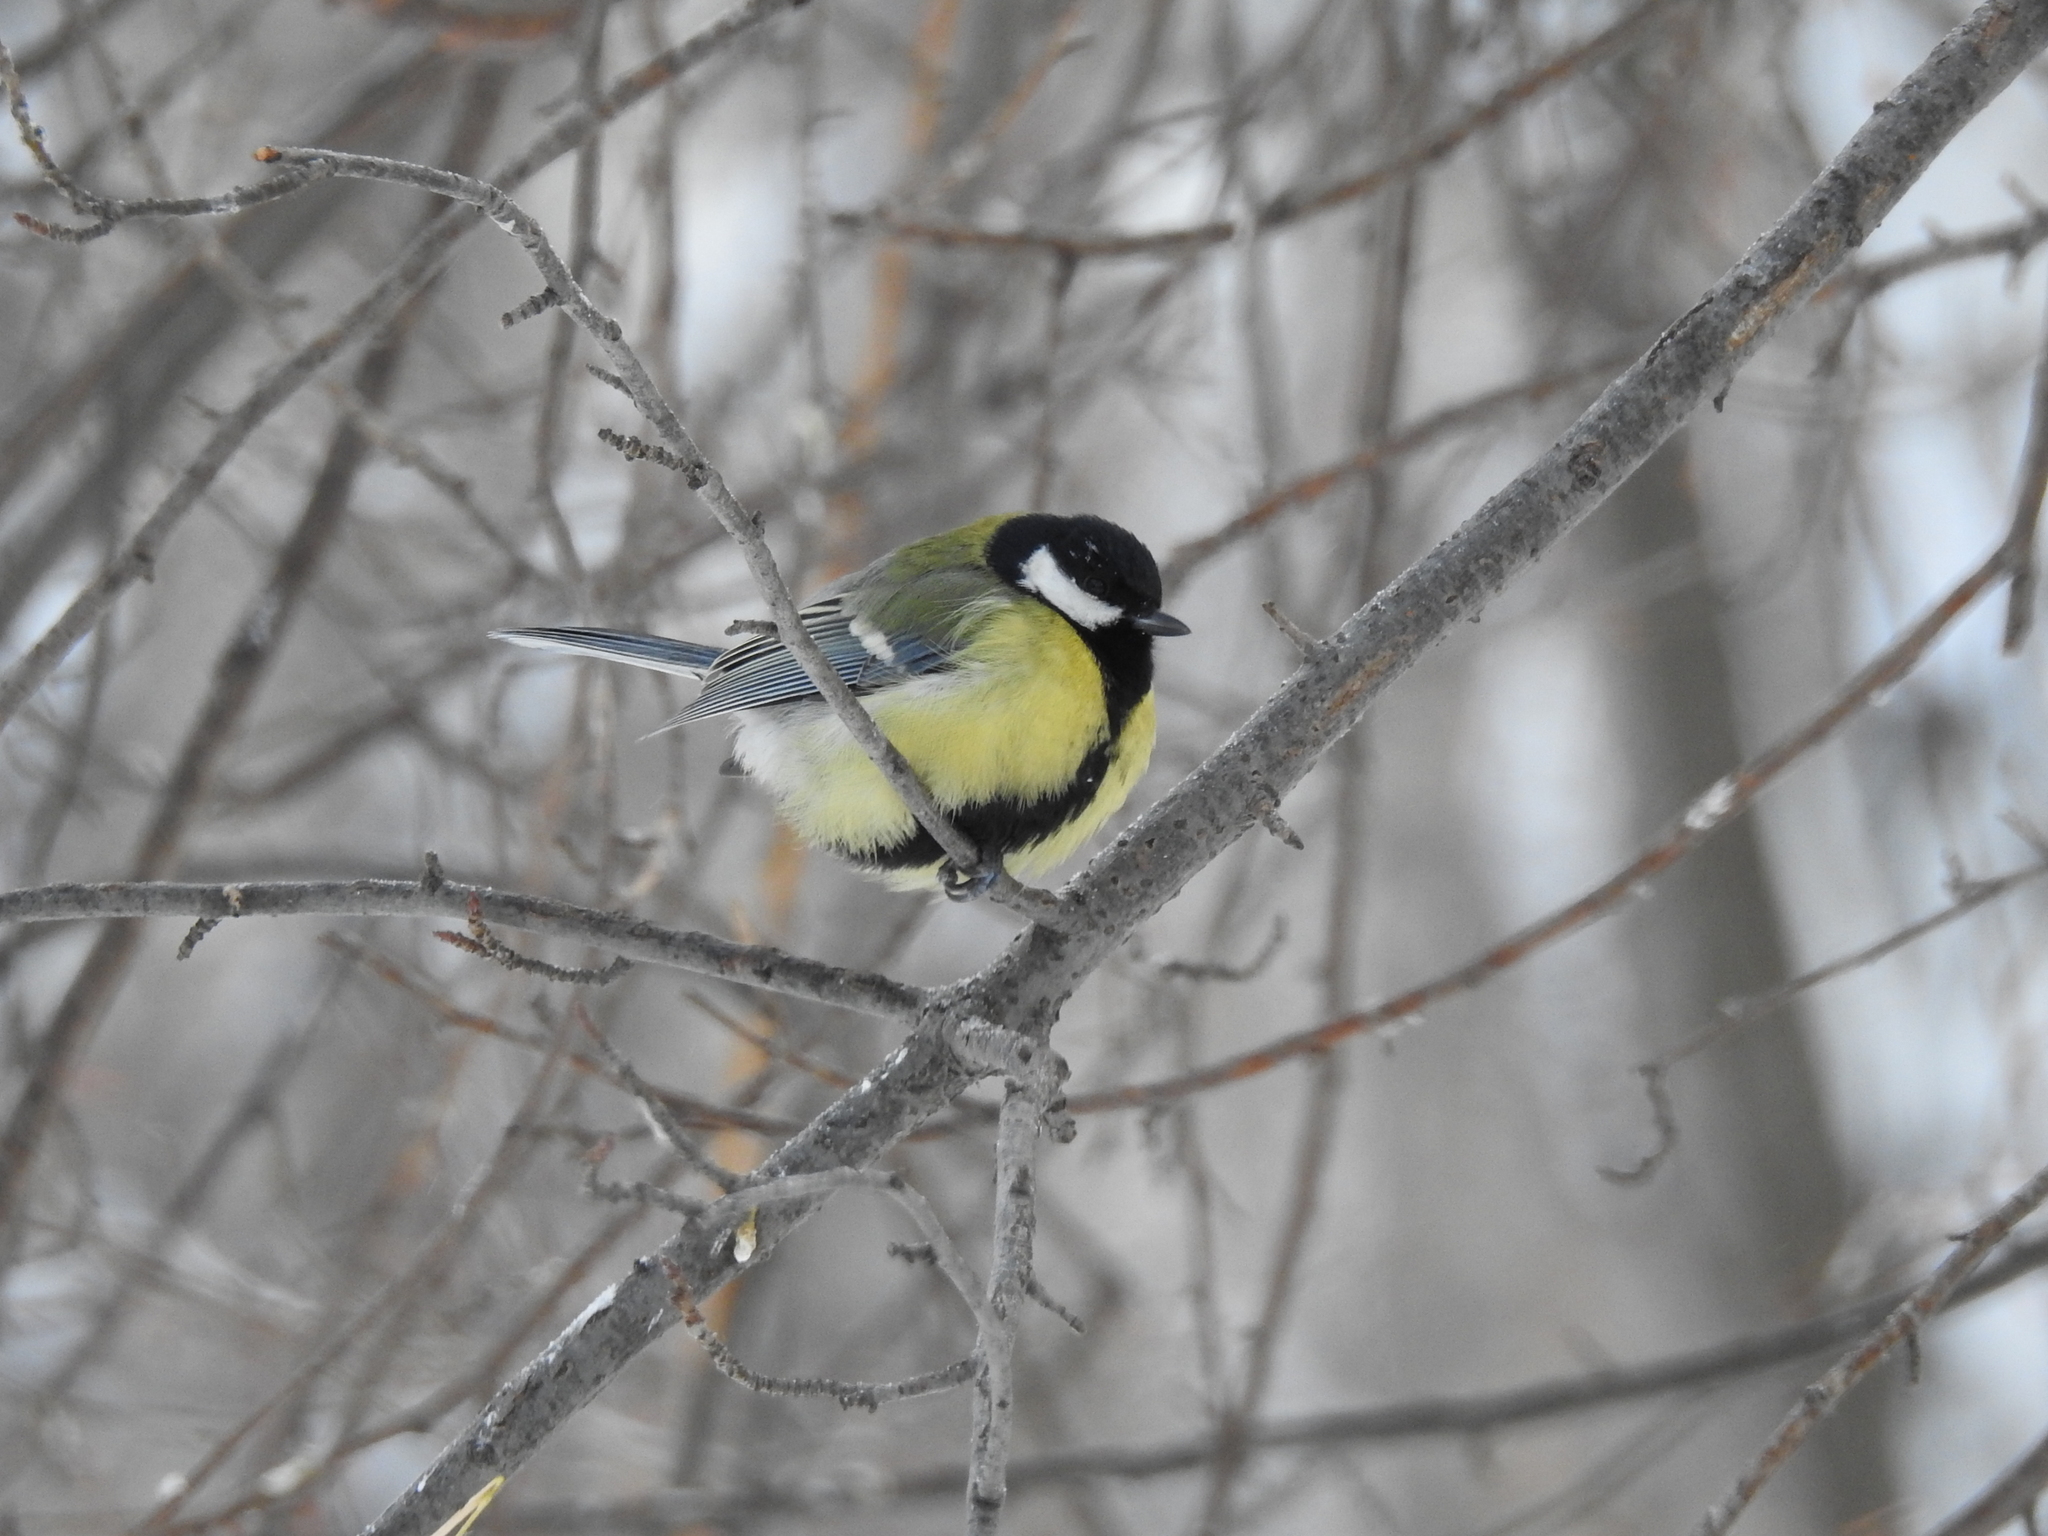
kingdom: Animalia
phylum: Chordata
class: Aves
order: Passeriformes
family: Paridae
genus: Parus
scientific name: Parus major
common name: Great tit
